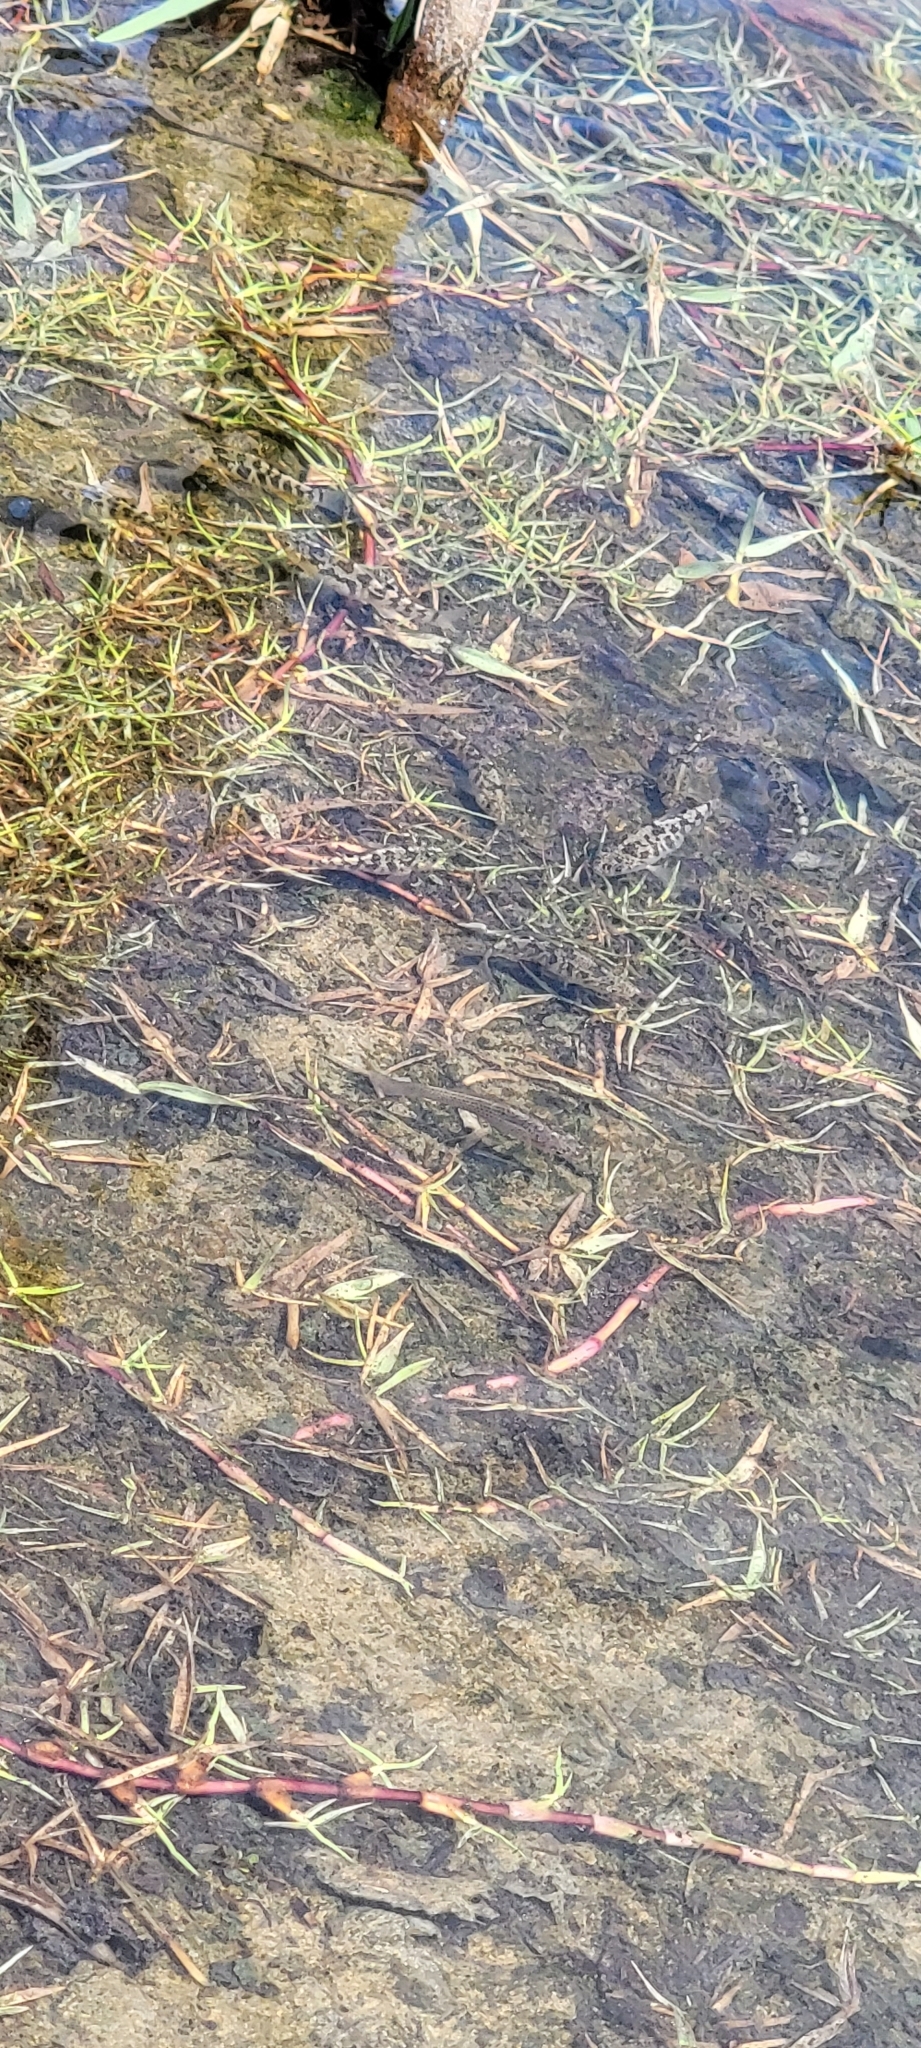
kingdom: Animalia
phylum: Chordata
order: Cyprinodontiformes
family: Cyprinodontidae
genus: Cyprinodon
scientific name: Cyprinodon variegatus
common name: Sheepshead minnow
